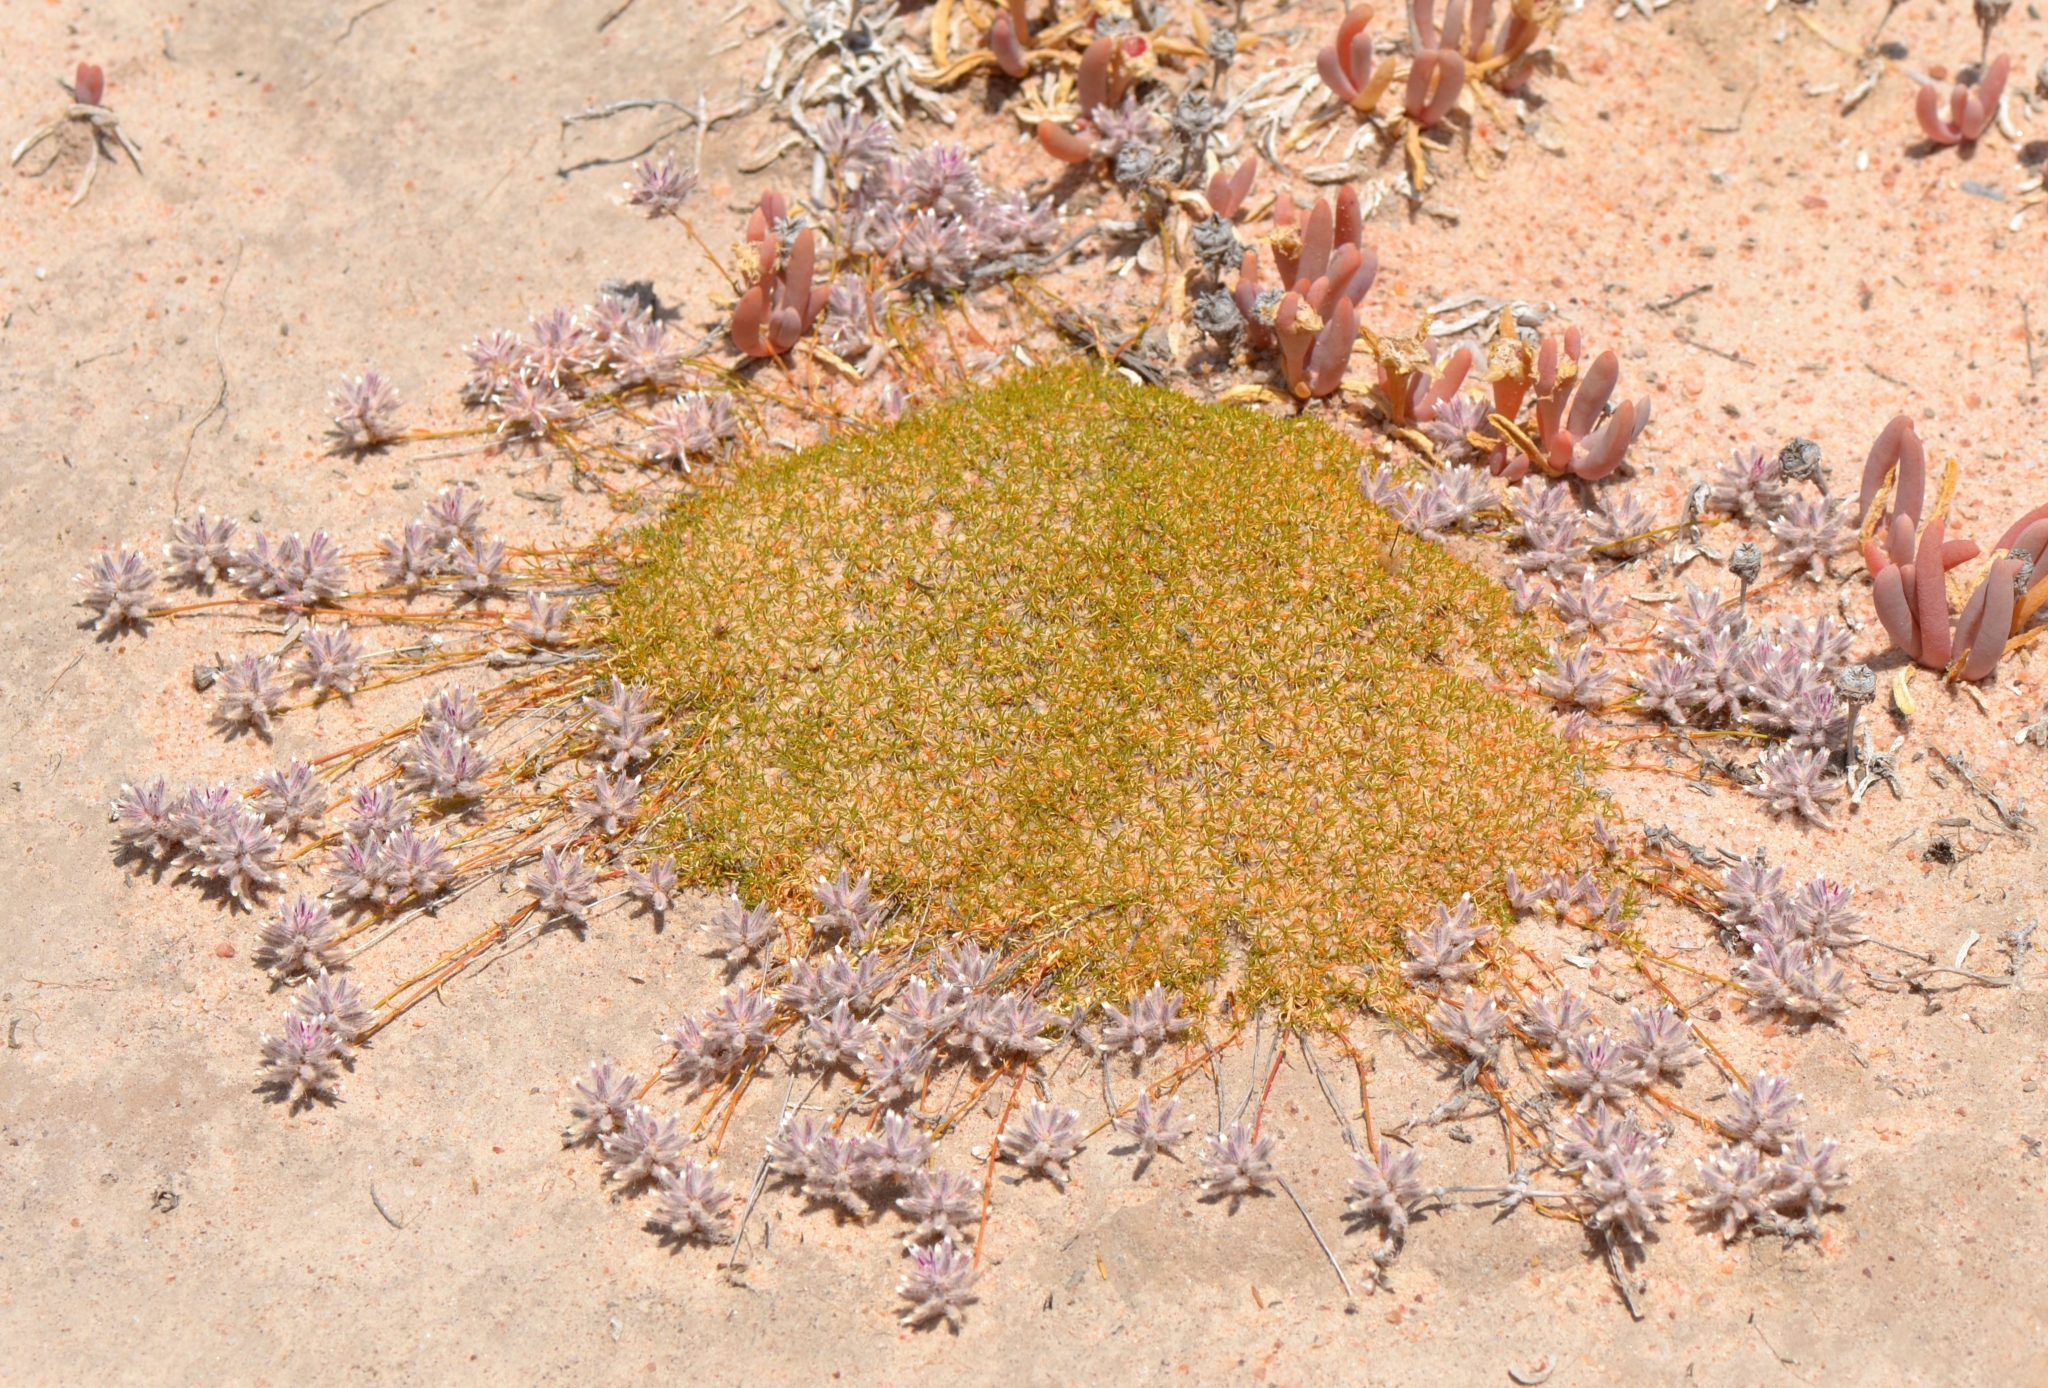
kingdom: Plantae
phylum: Tracheophyta
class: Magnoliopsida
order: Caryophyllales
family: Amaranthaceae
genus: Ptilotus
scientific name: Ptilotus fasciculatus
